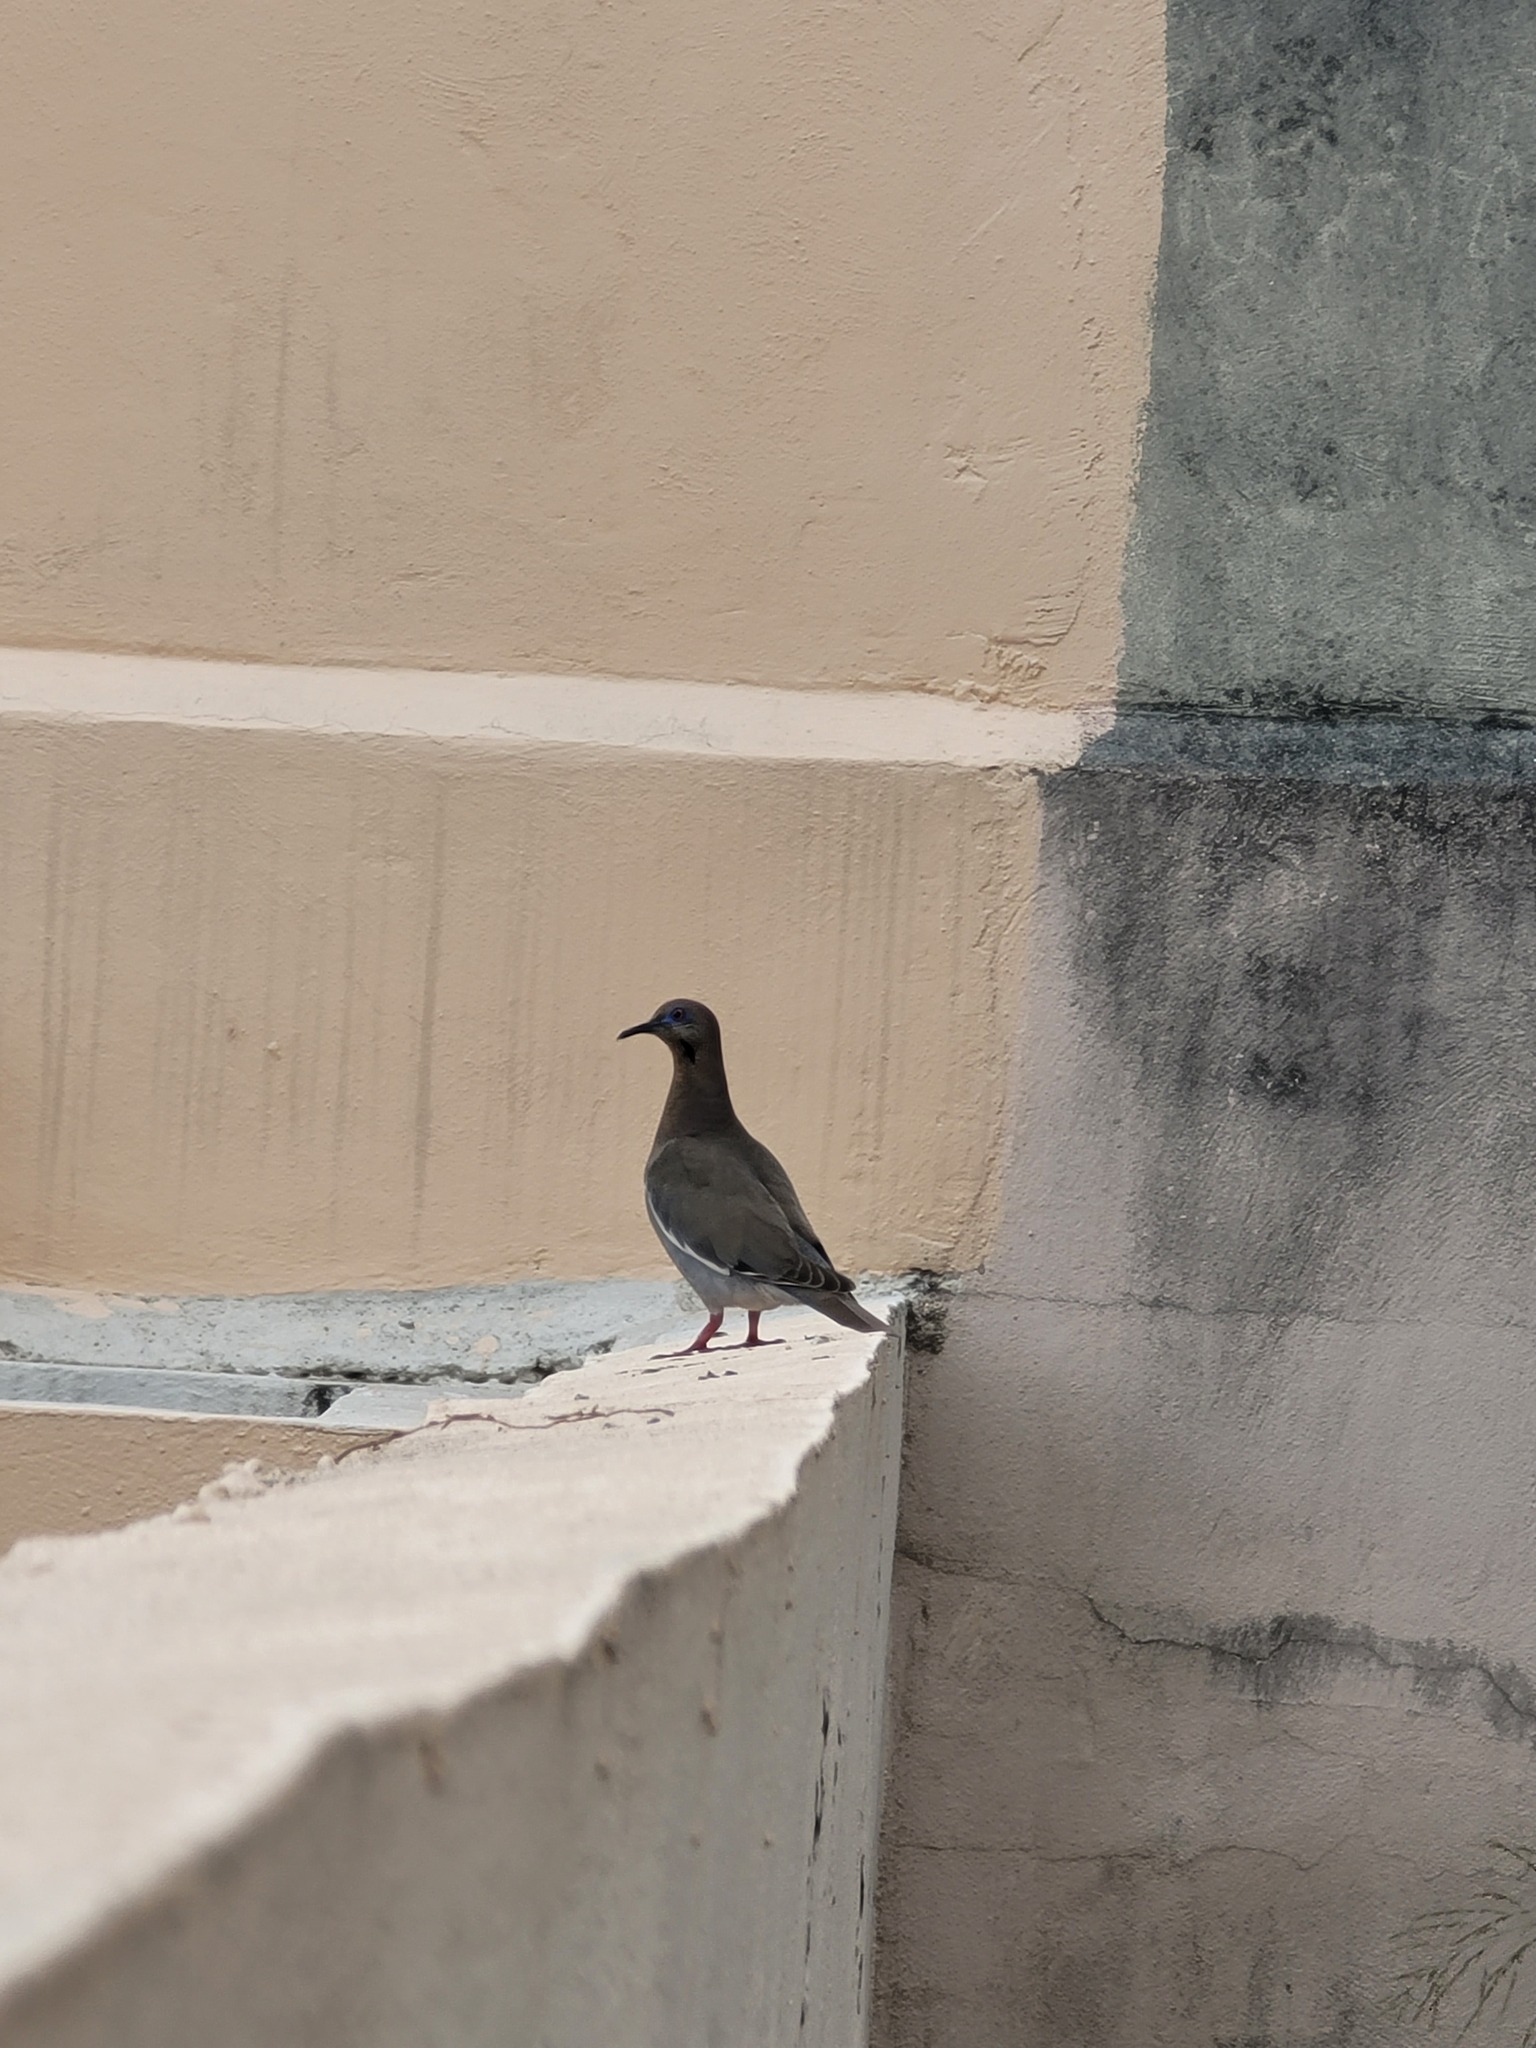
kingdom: Animalia
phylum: Chordata
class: Aves
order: Columbiformes
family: Columbidae
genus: Zenaida
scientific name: Zenaida asiatica
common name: White-winged dove
